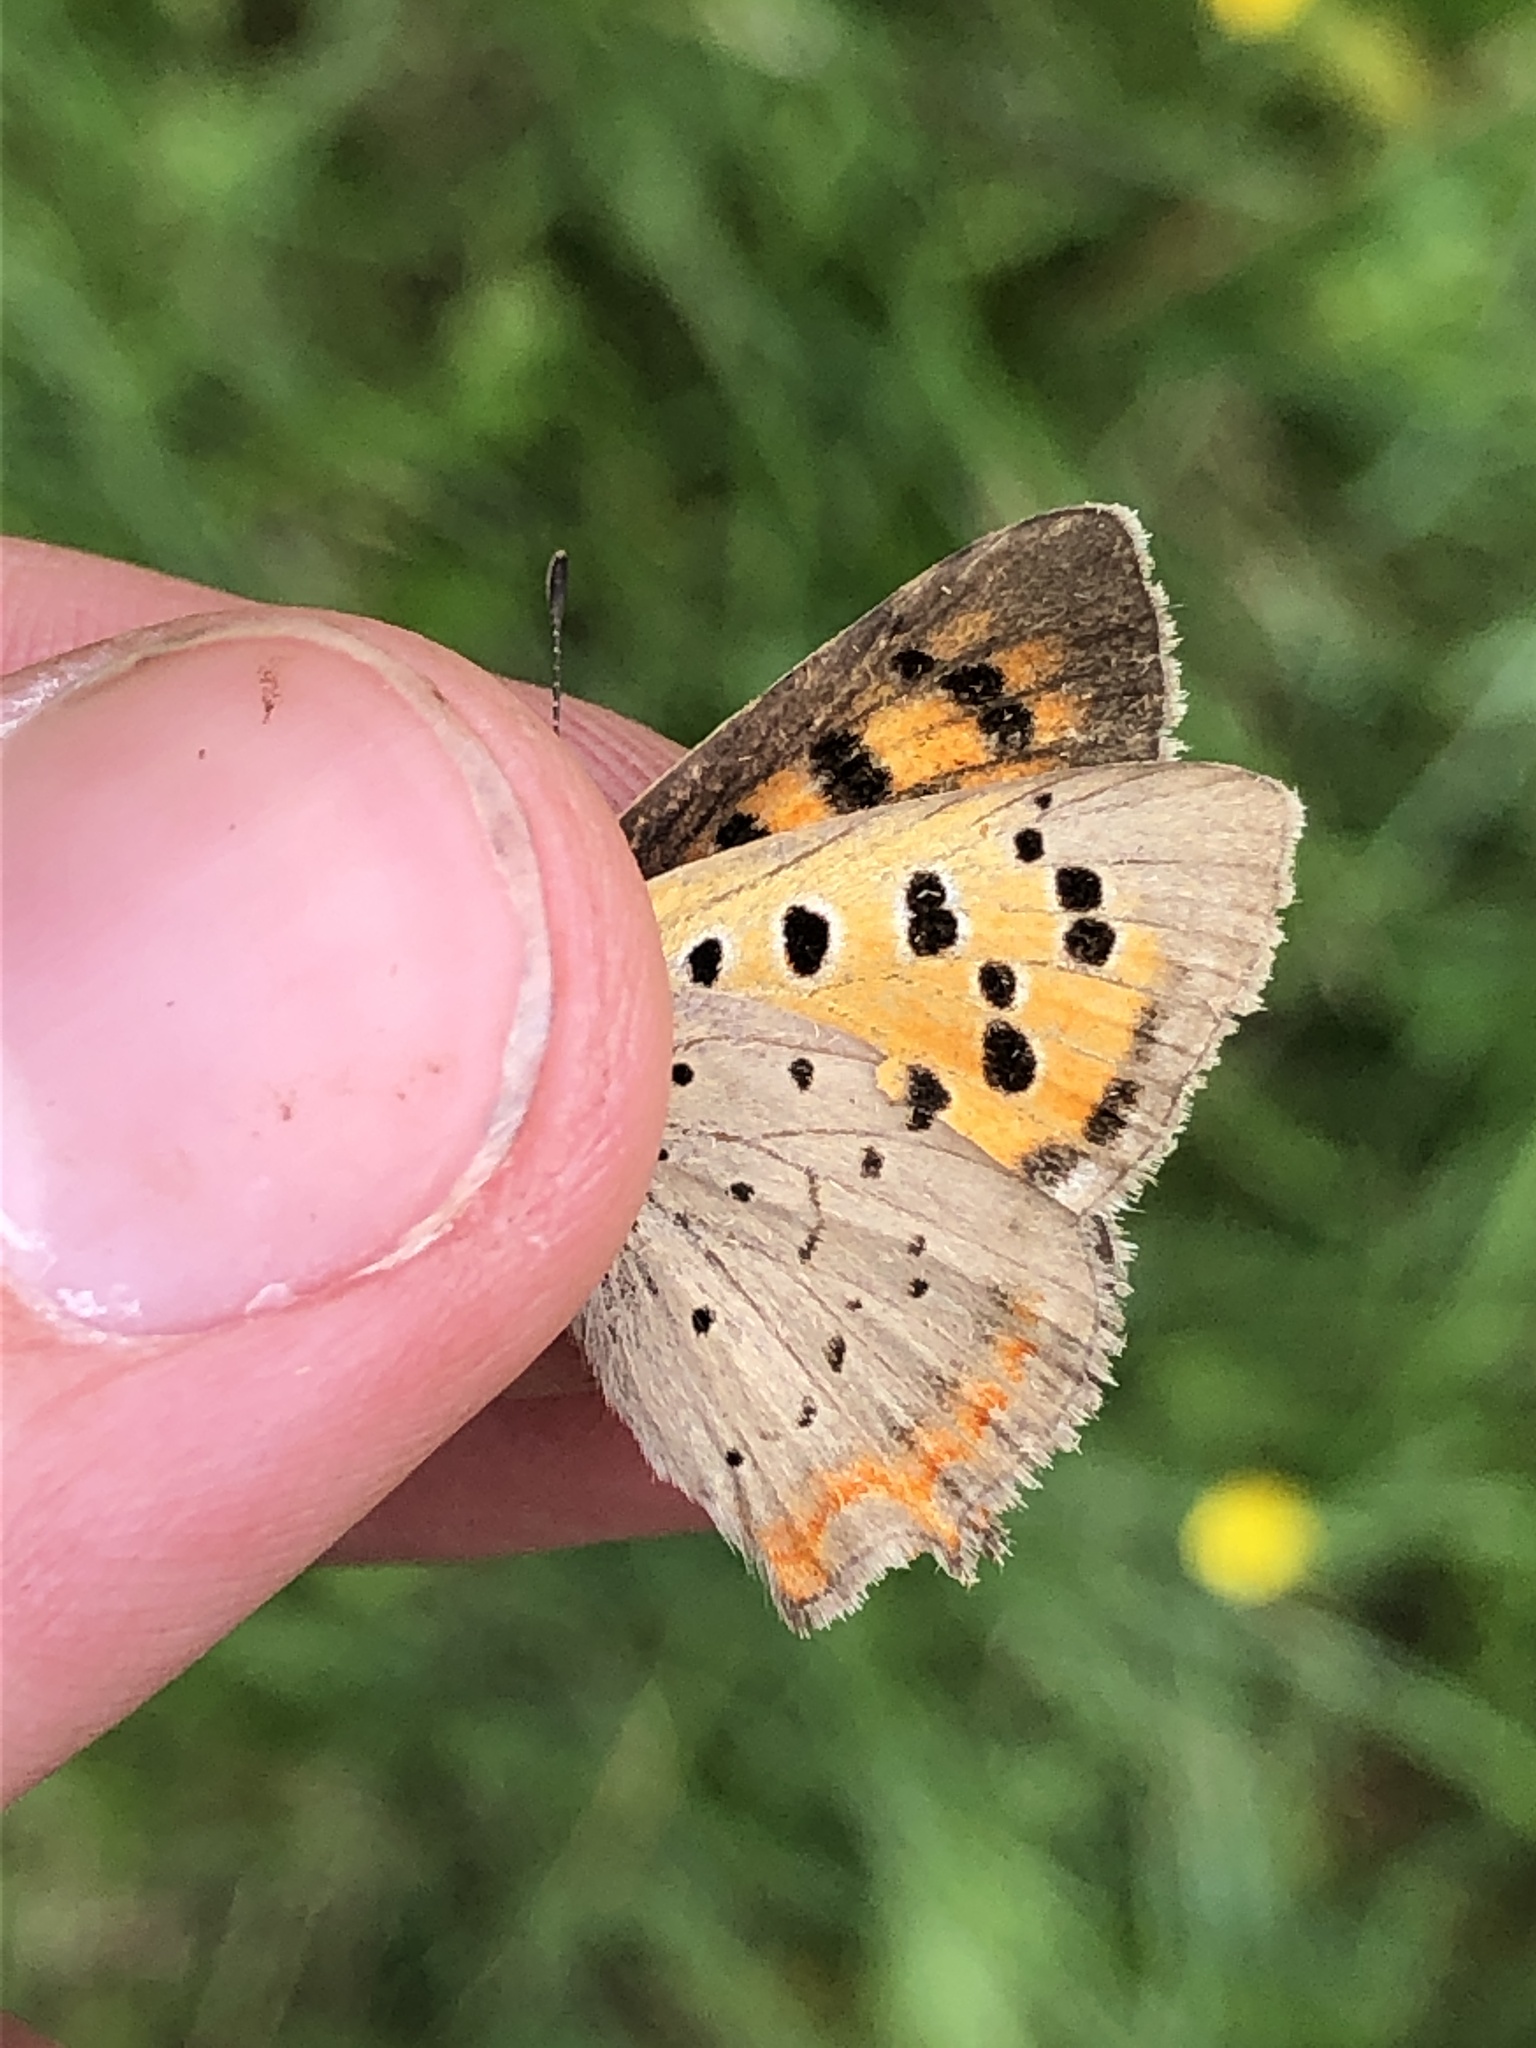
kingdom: Animalia
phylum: Arthropoda
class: Insecta
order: Lepidoptera
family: Lycaenidae
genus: Lycaena
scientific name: Lycaena phlaeas
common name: Small copper
